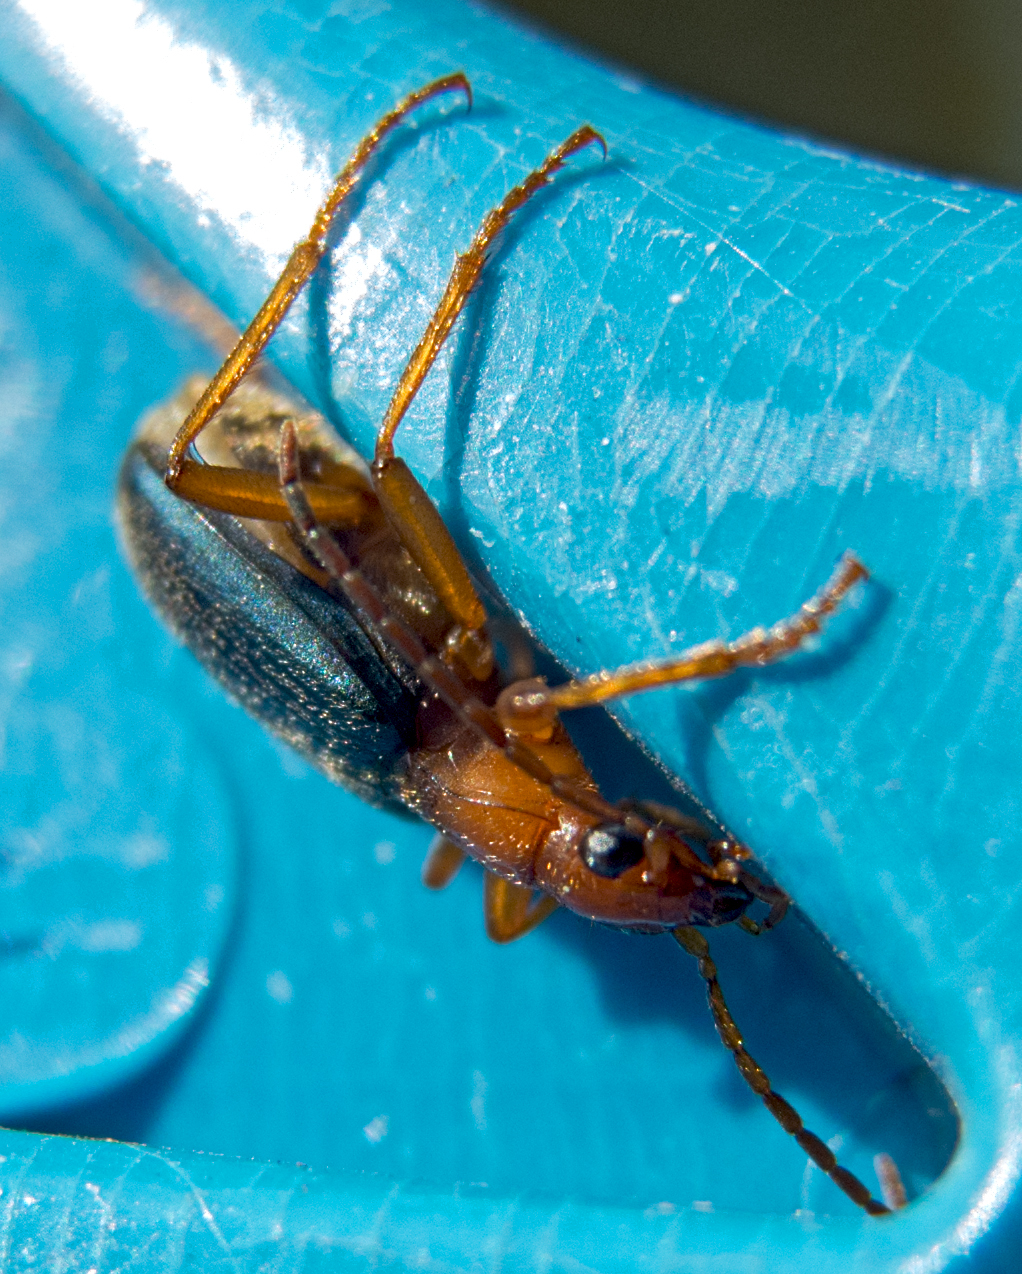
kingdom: Animalia
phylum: Arthropoda
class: Insecta
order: Coleoptera
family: Carabidae
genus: Brachinus
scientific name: Brachinus ejaculans
